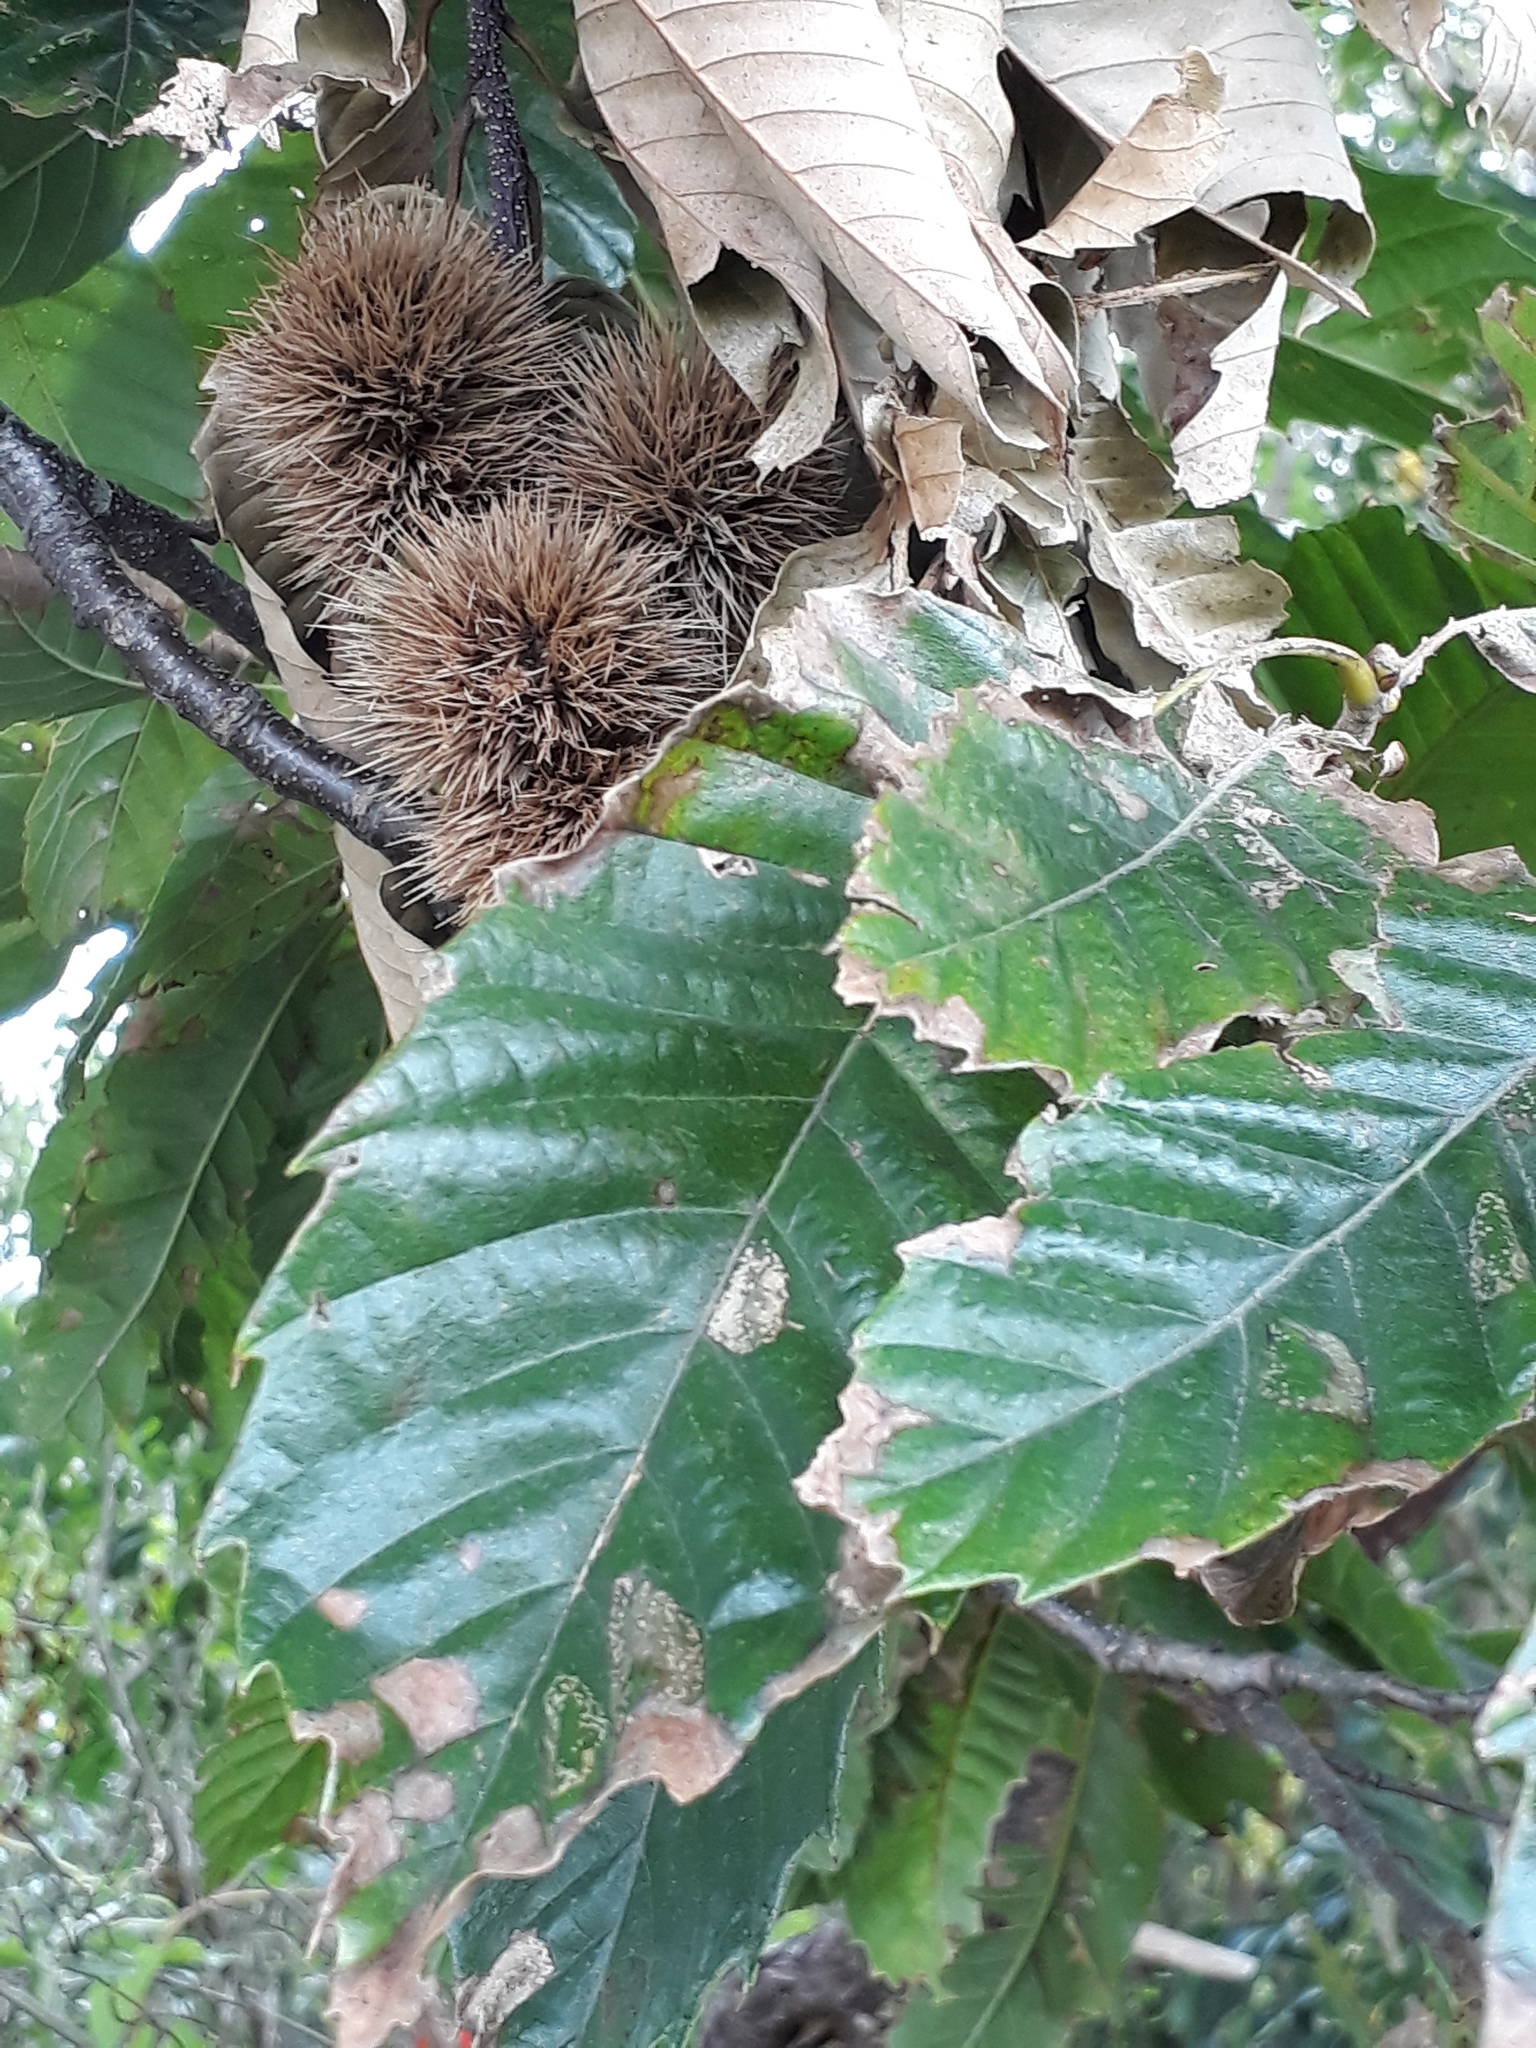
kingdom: Plantae
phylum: Tracheophyta
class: Magnoliopsida
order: Fagales
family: Fagaceae
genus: Castanea
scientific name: Castanea sativa
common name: Sweet chestnut
